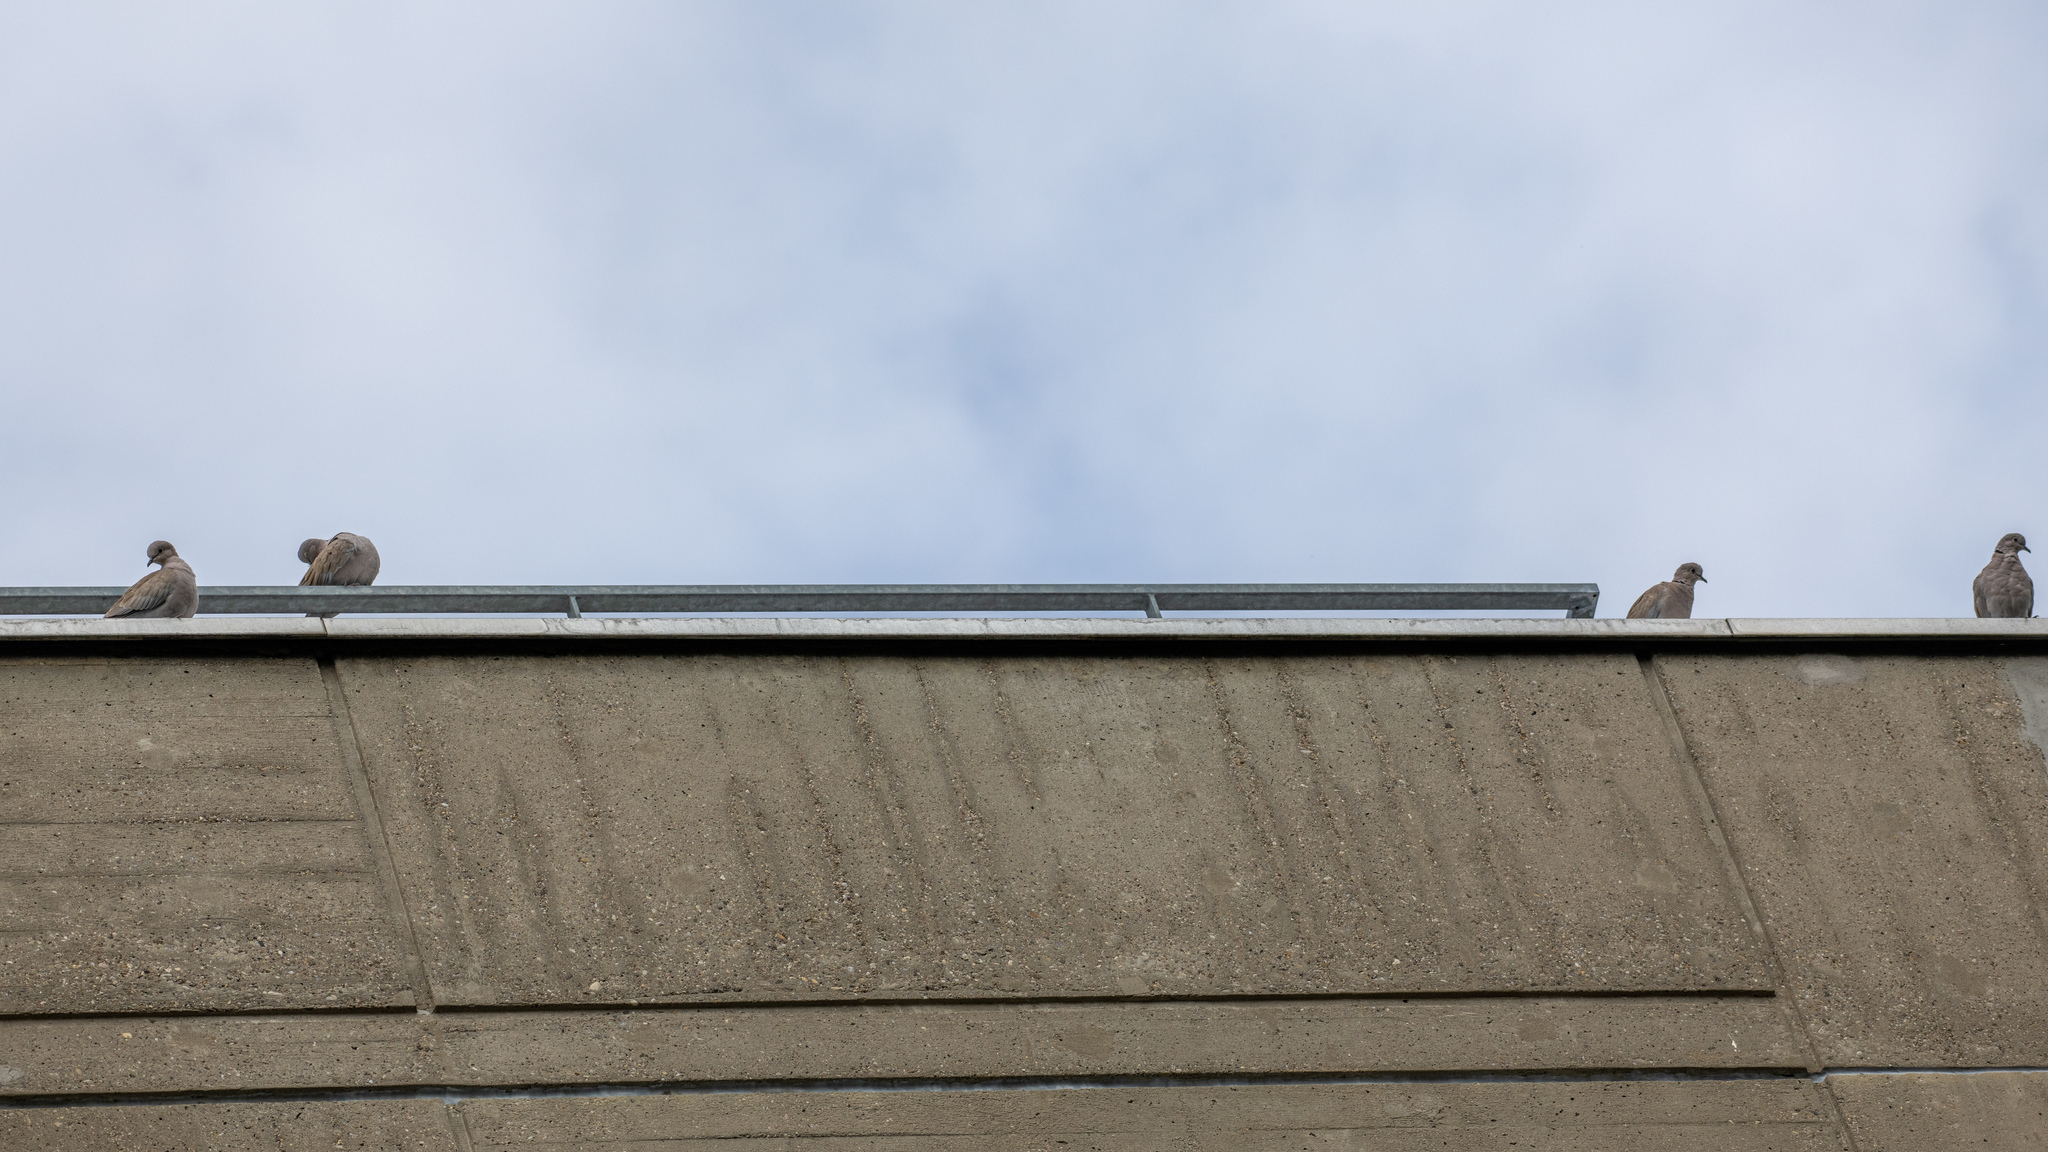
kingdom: Animalia
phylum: Chordata
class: Aves
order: Columbiformes
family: Columbidae
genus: Streptopelia
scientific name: Streptopelia decaocto
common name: Eurasian collared dove
